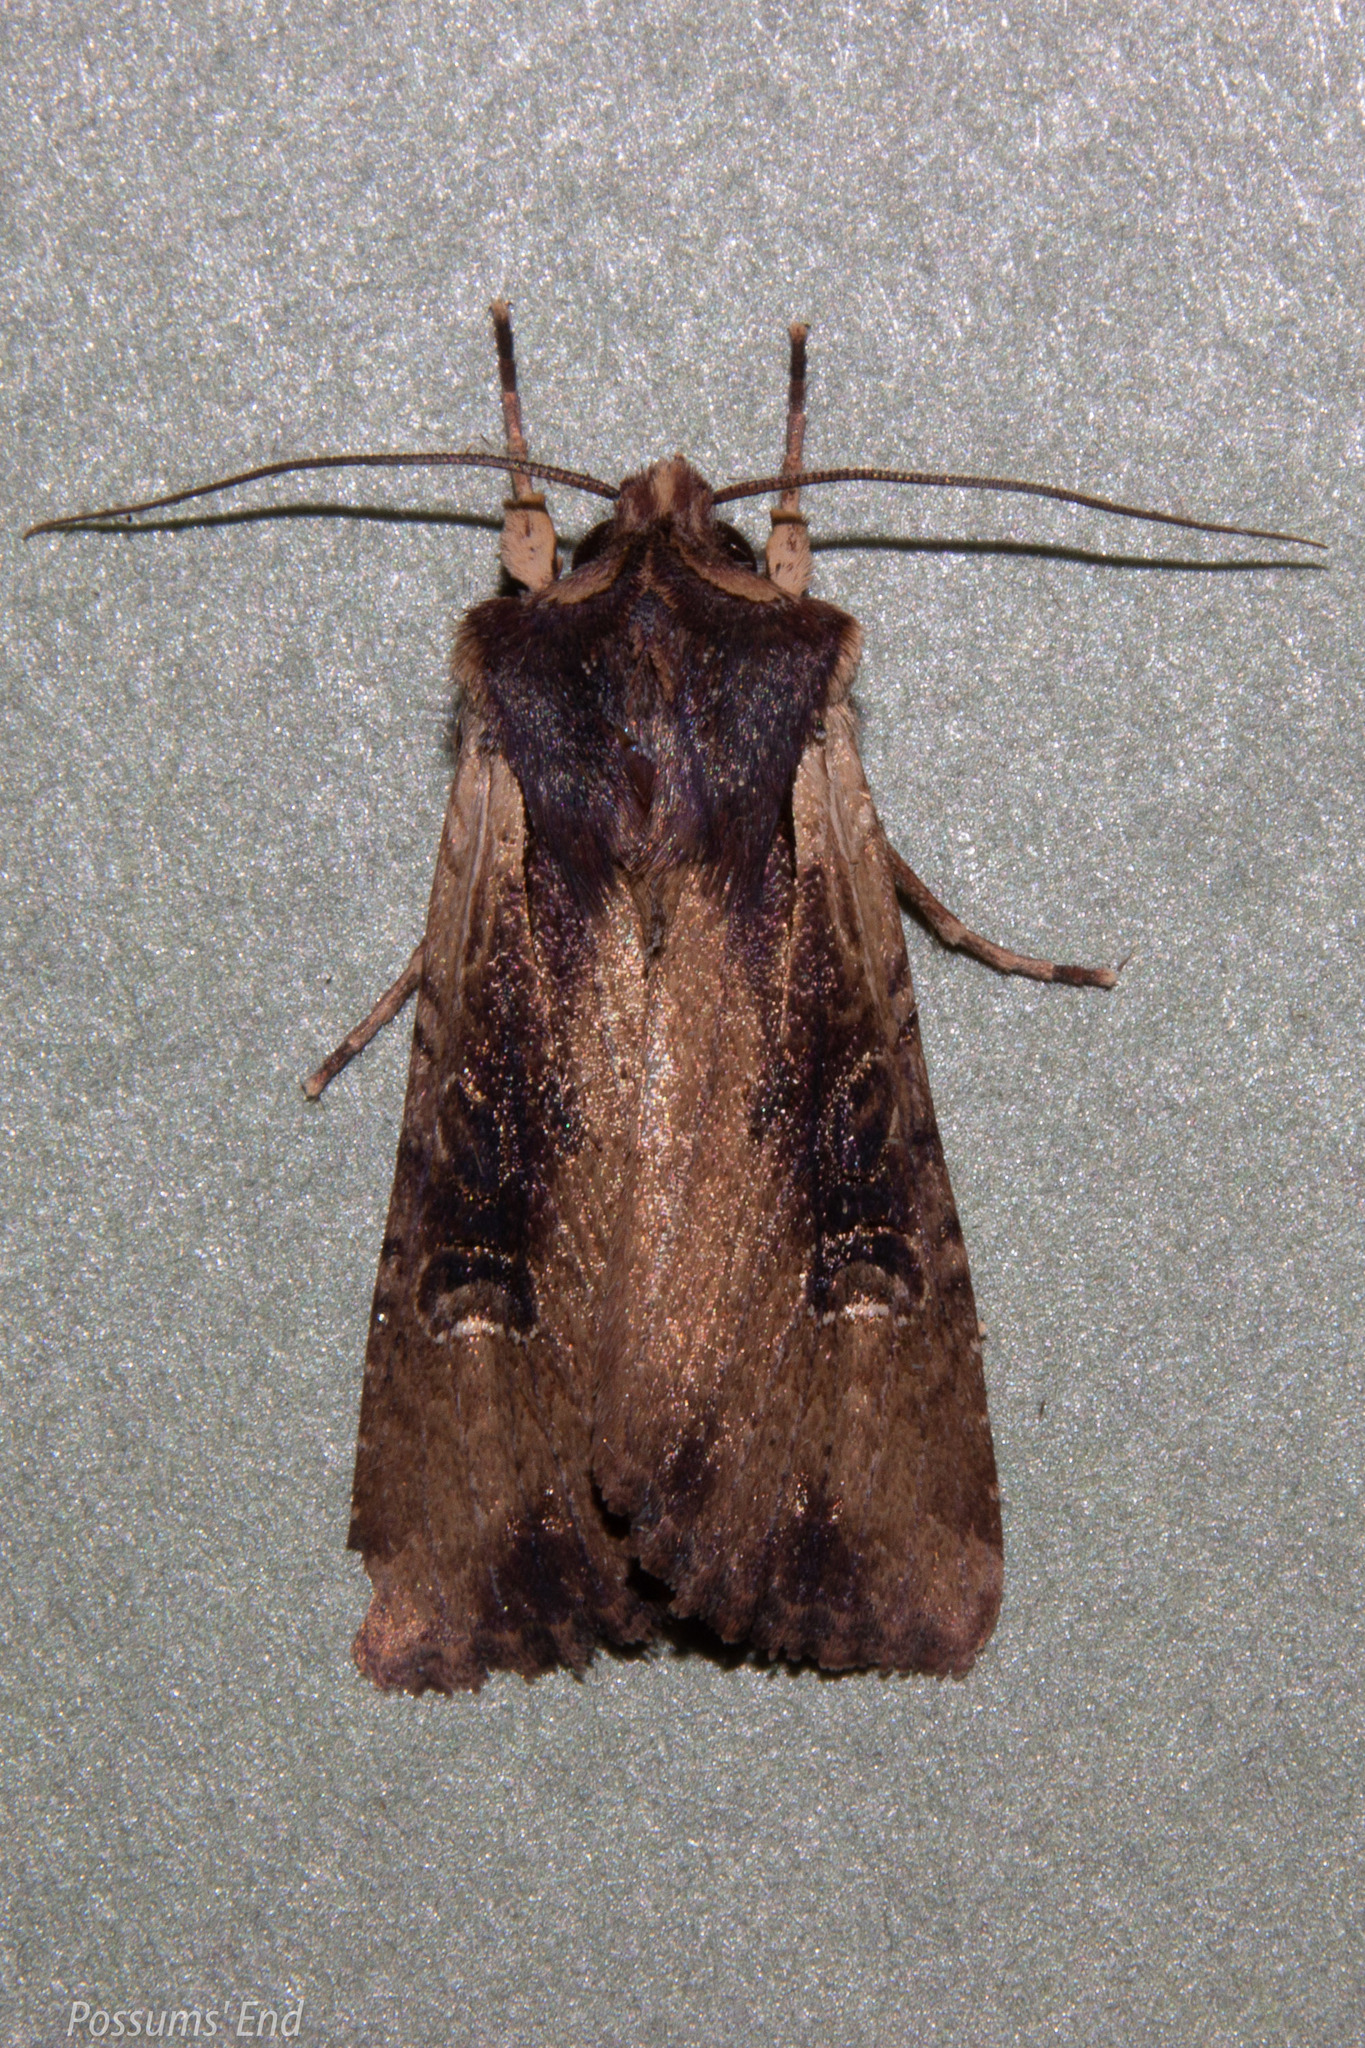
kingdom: Animalia
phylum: Arthropoda
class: Insecta
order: Lepidoptera
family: Noctuidae
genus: Ichneutica
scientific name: Ichneutica omoplaca
